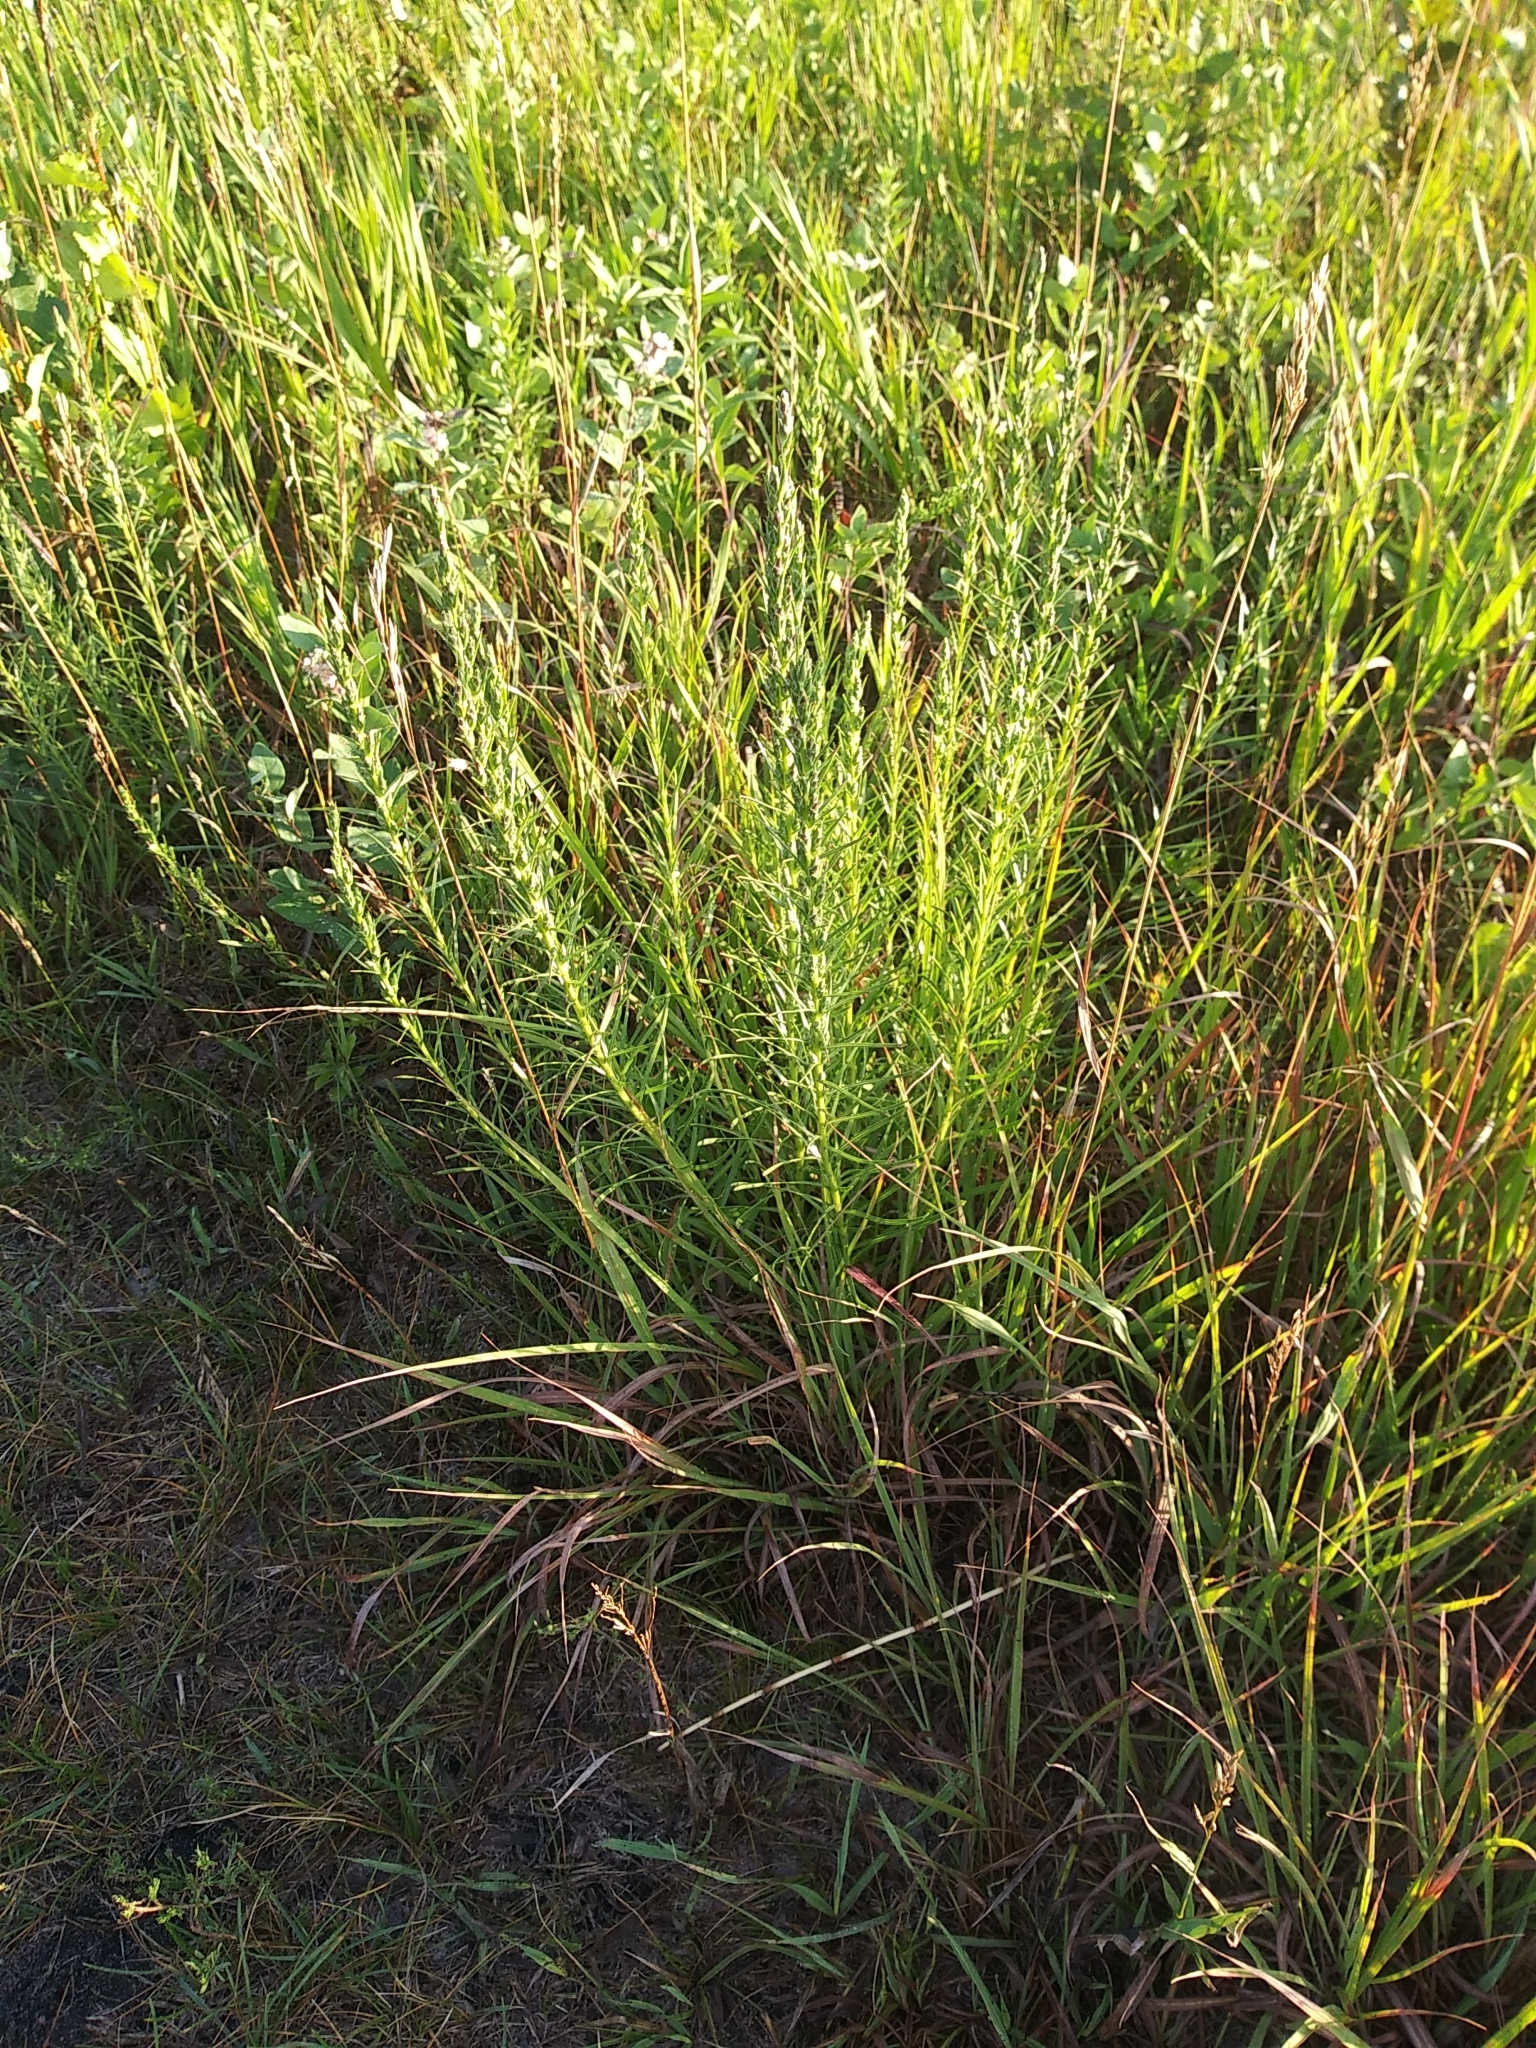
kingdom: Plantae
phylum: Tracheophyta
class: Magnoliopsida
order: Asterales
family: Asteraceae
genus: Liatris
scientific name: Liatris punctata
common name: Dotted gayfeather
